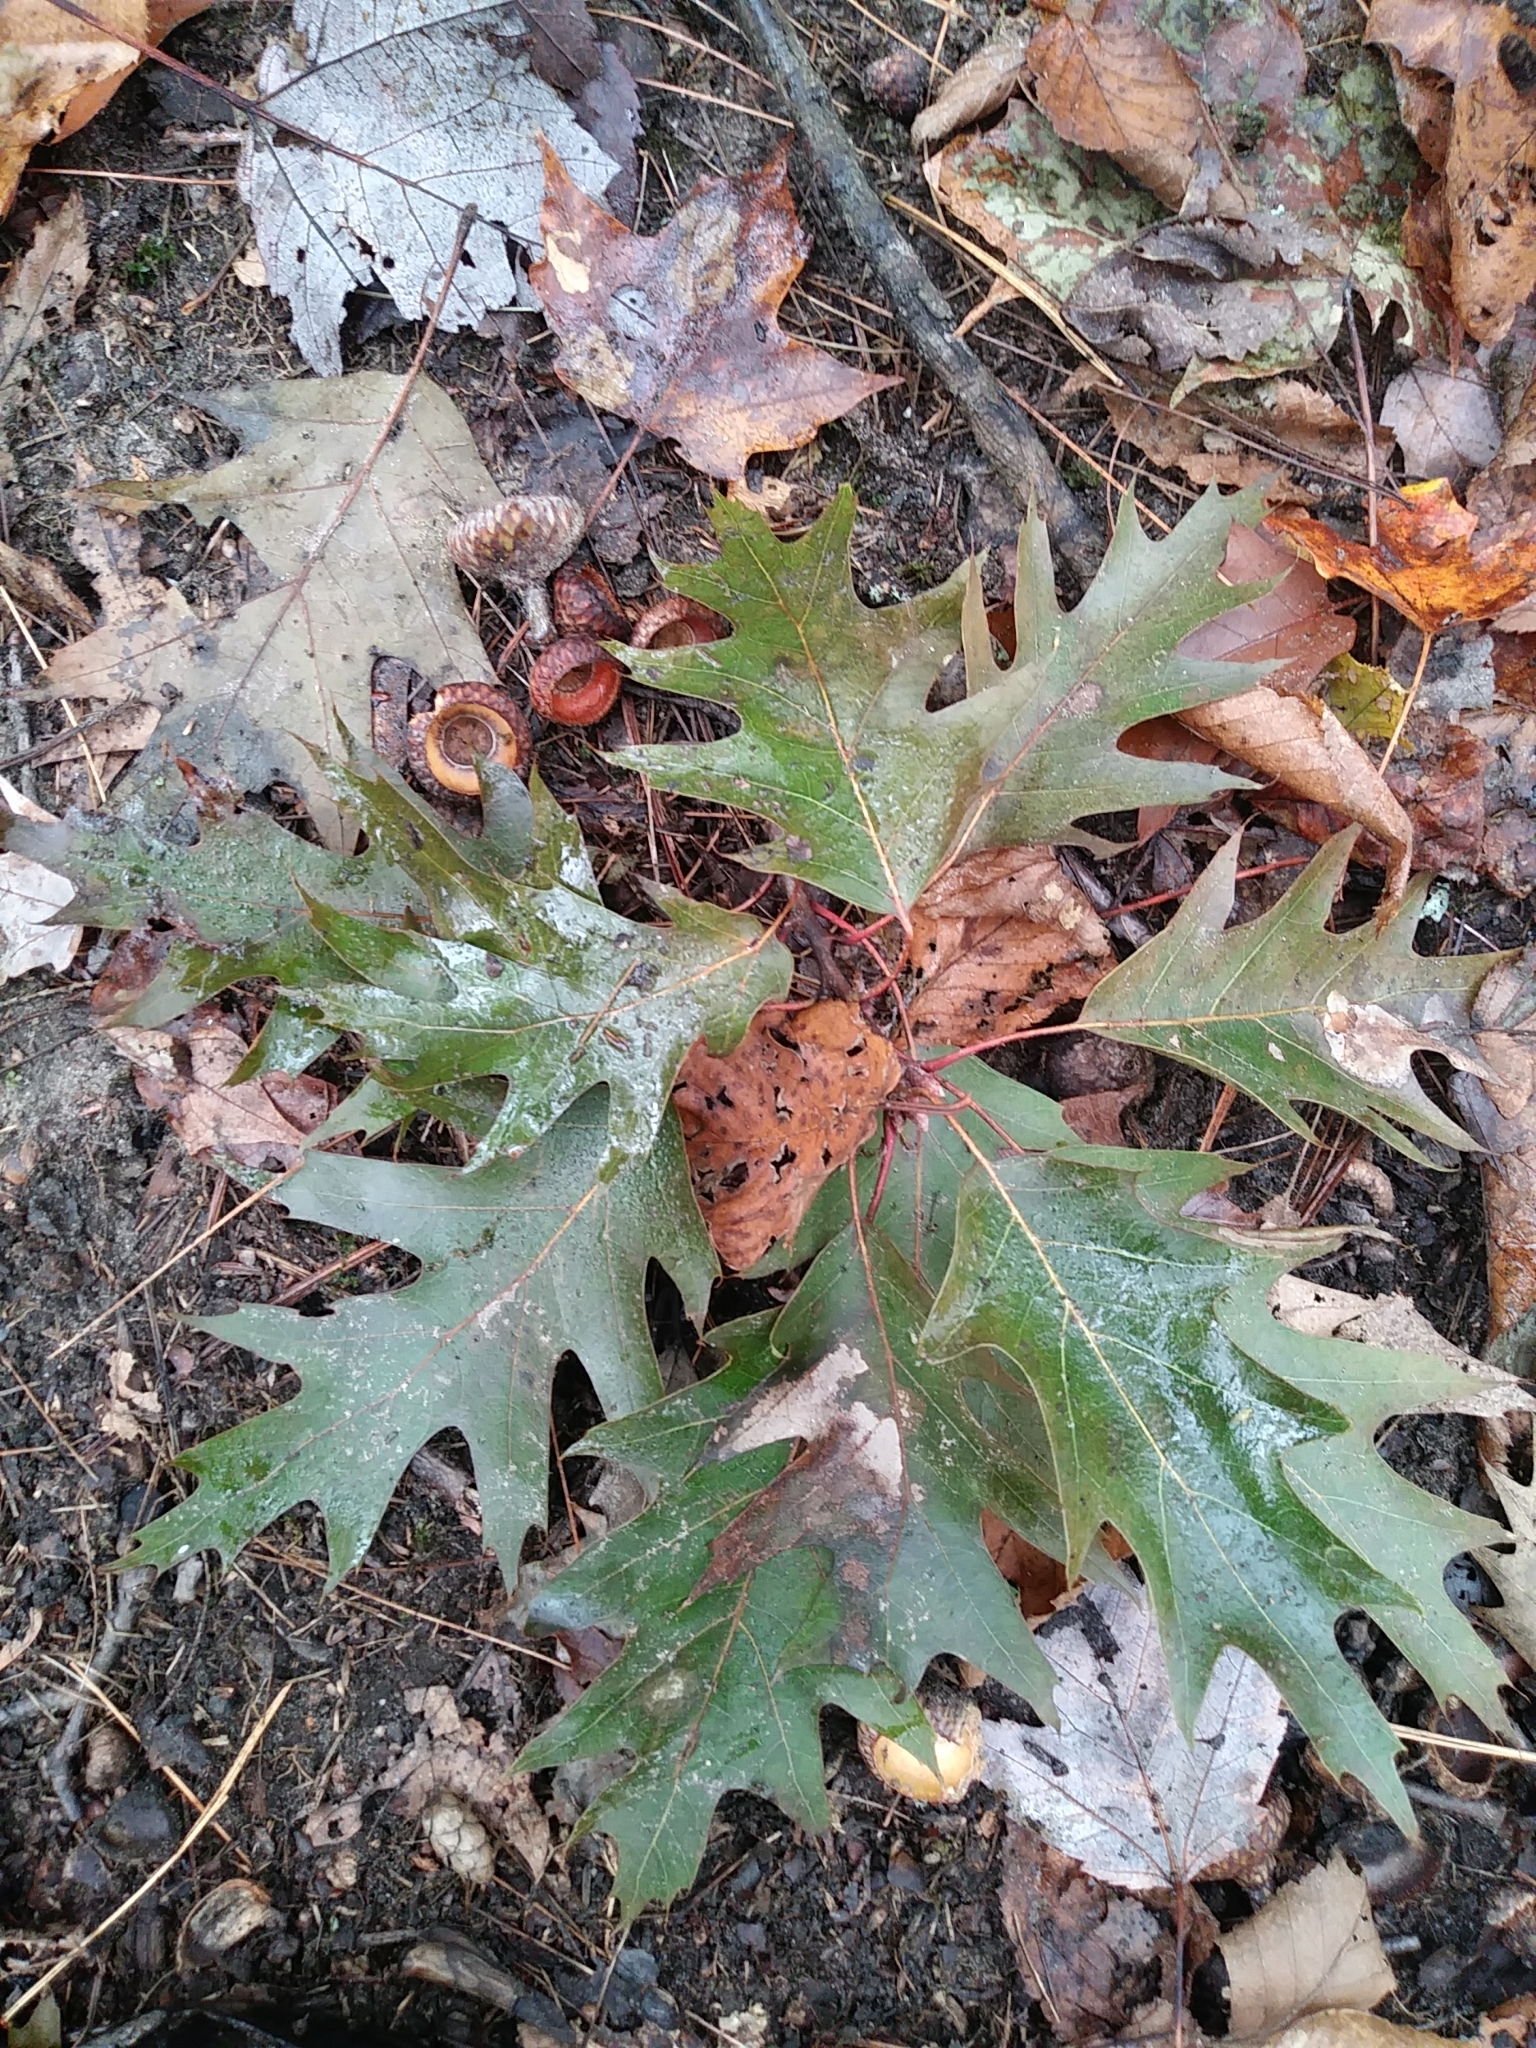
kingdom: Plantae
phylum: Tracheophyta
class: Magnoliopsida
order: Fagales
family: Fagaceae
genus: Quercus
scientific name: Quercus rubra
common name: Red oak
